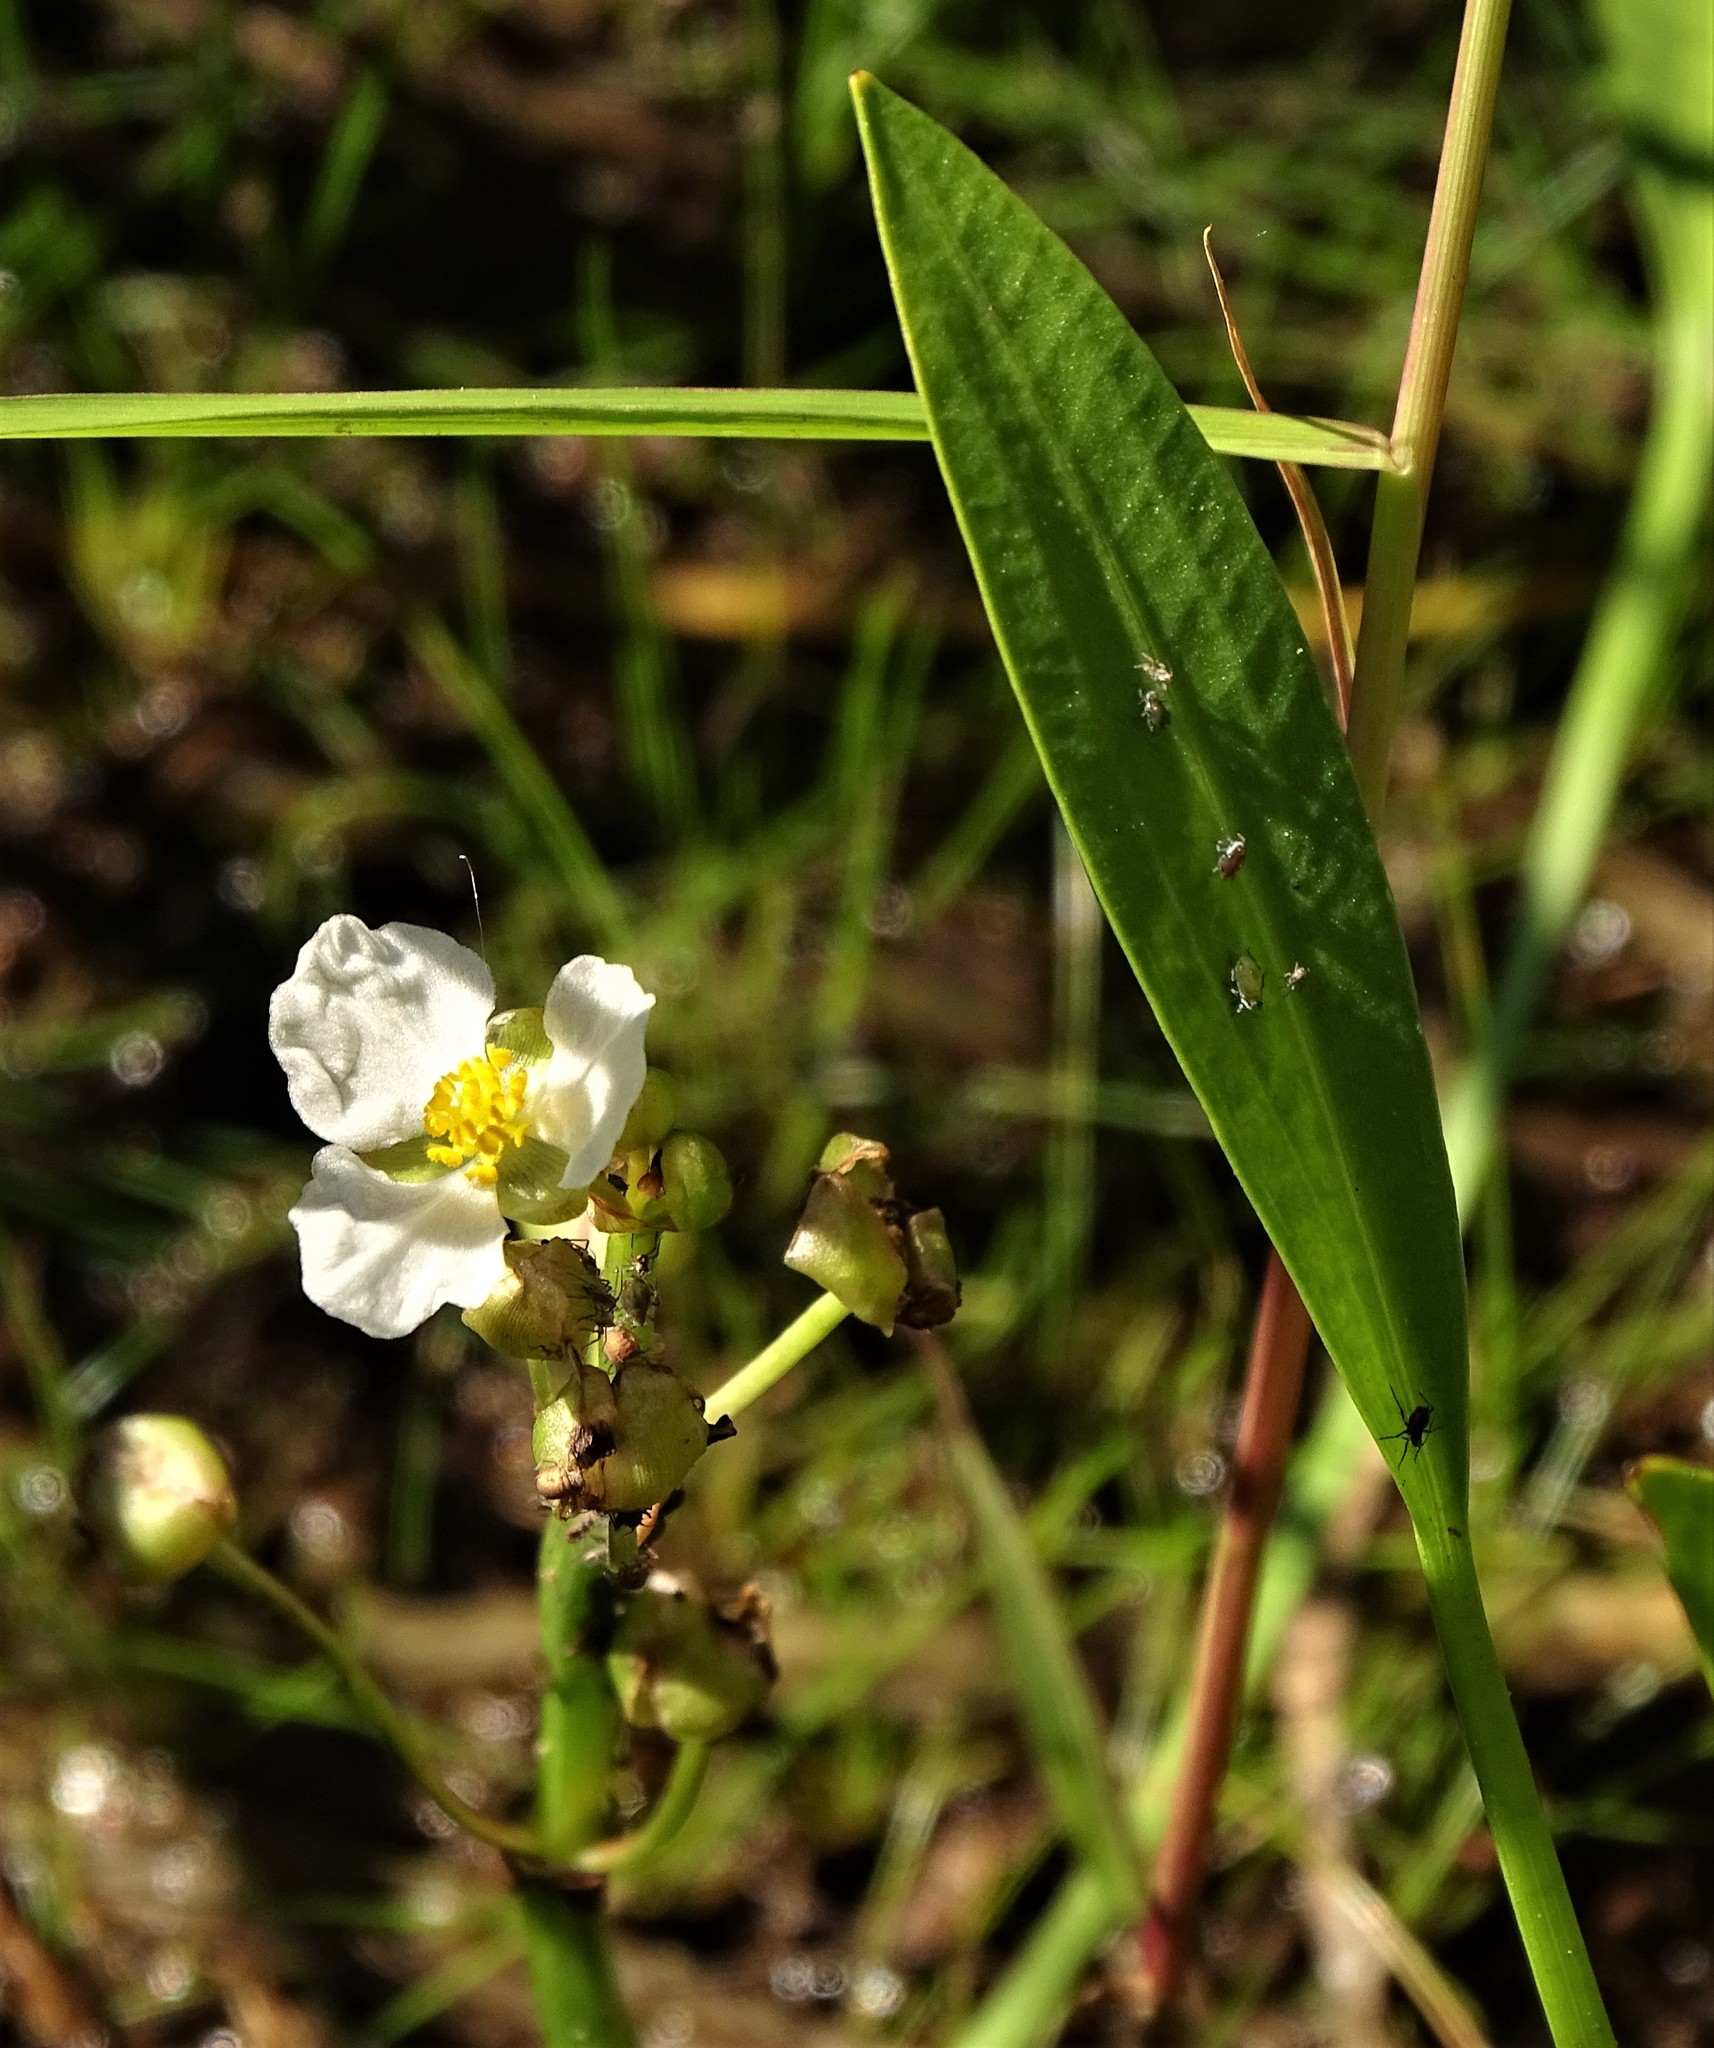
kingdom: Plantae
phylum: Tracheophyta
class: Liliopsida
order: Alismatales
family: Alismataceae
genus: Sagittaria
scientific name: Sagittaria rigida
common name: Canadian arrowhead
